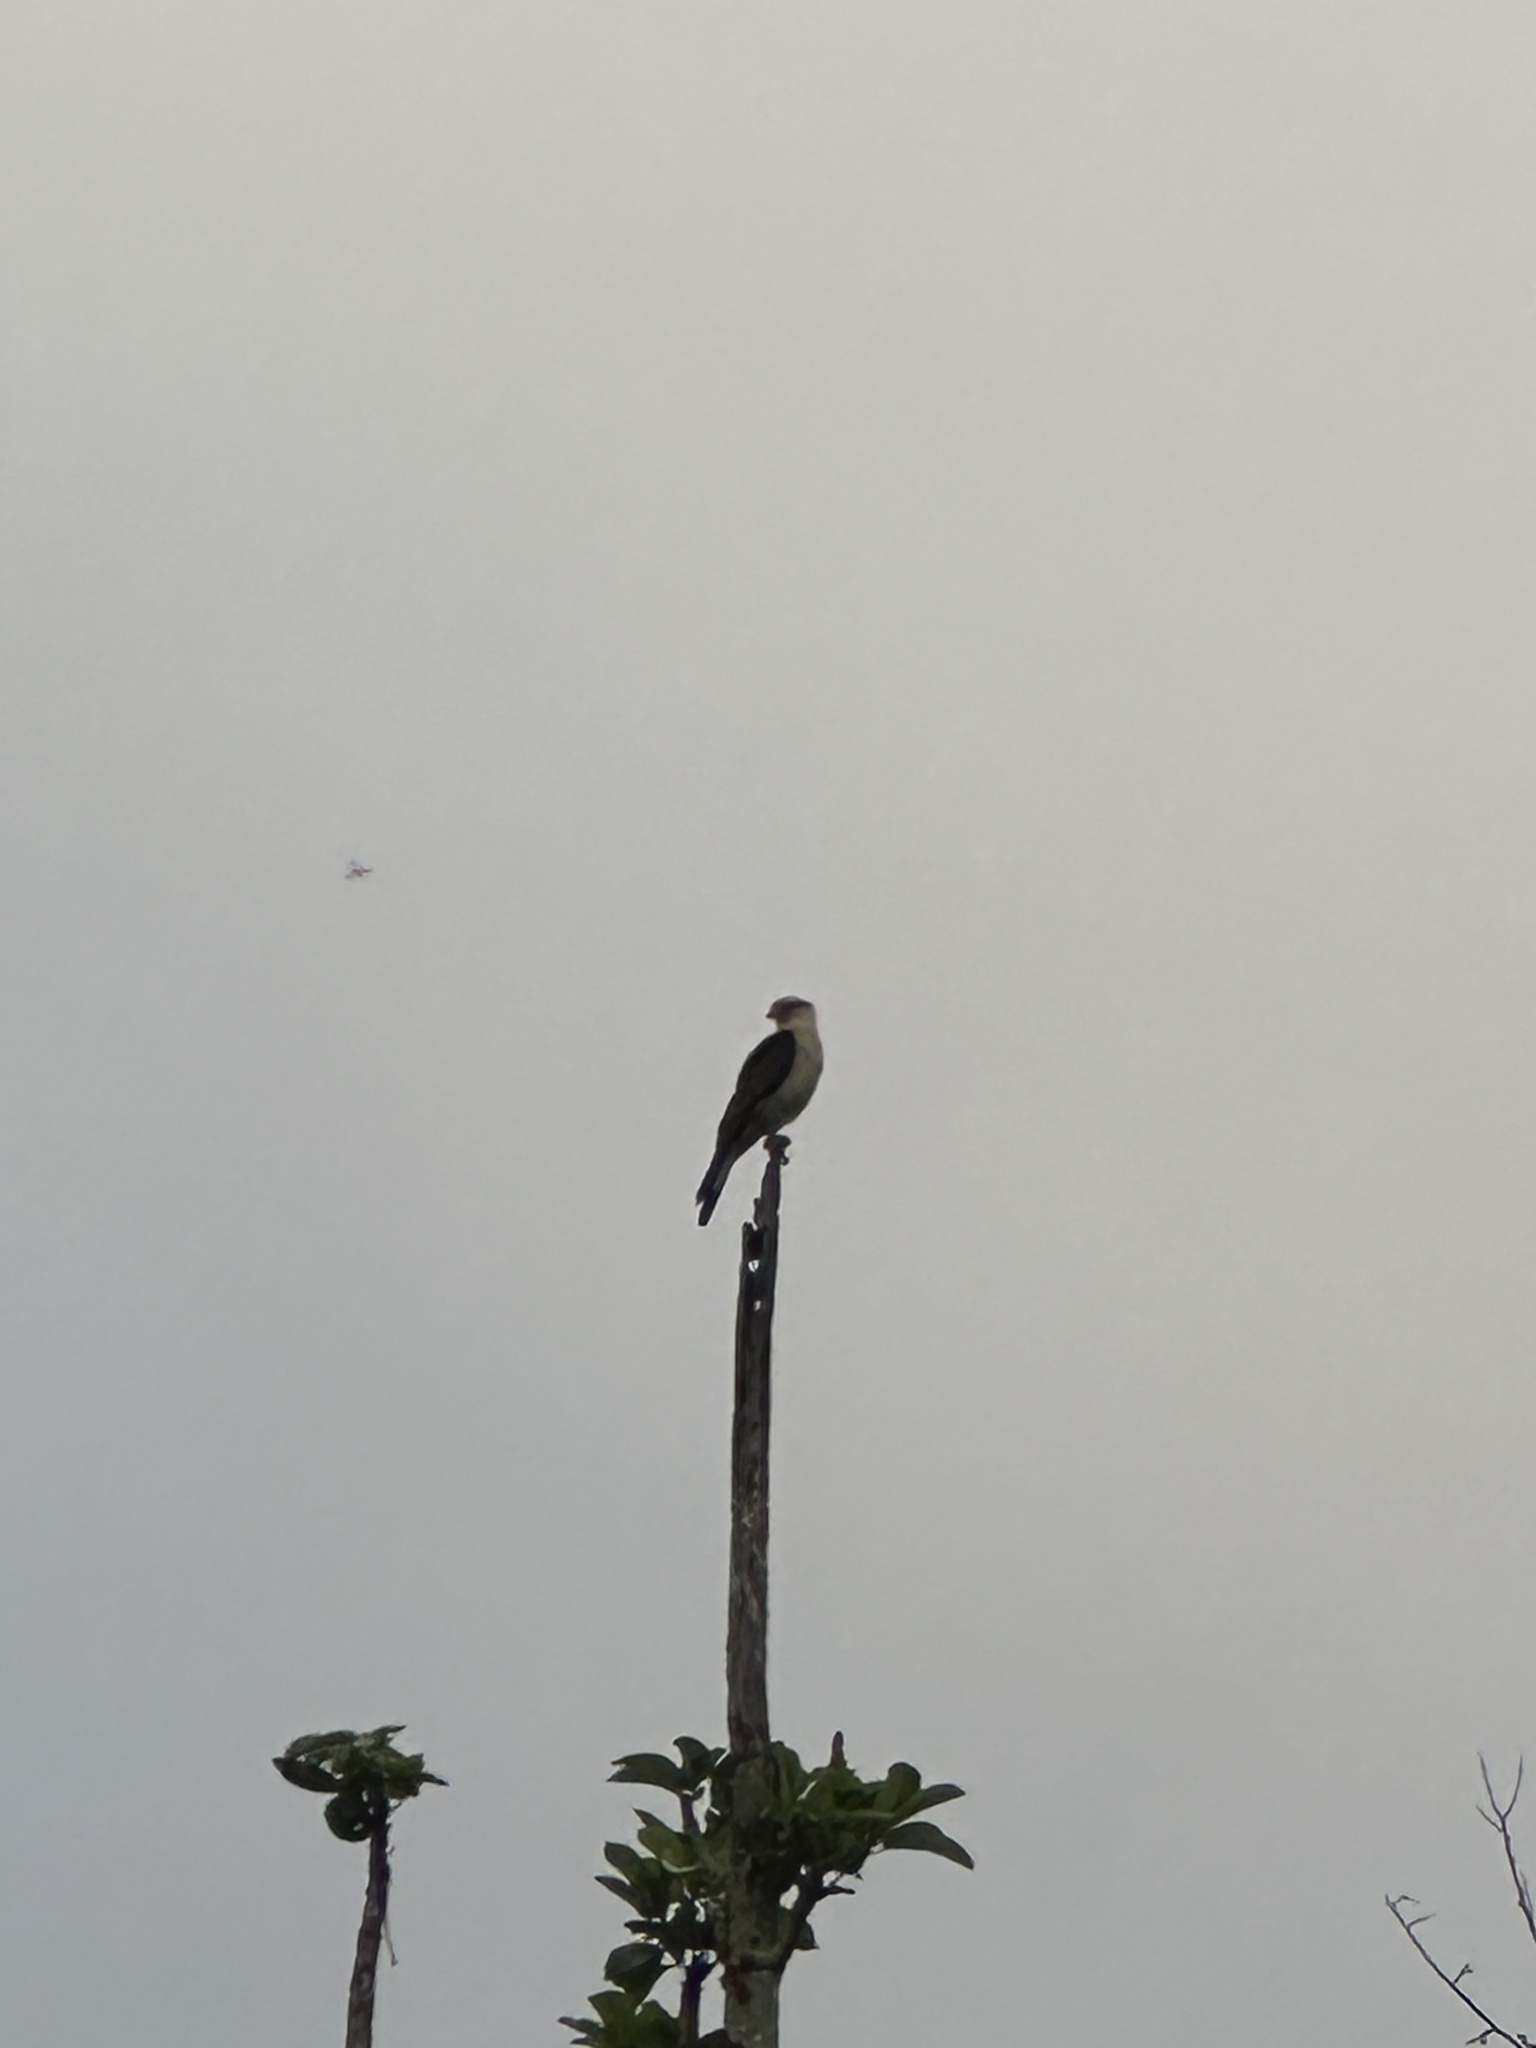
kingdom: Animalia
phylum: Chordata
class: Aves
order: Falconiformes
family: Falconidae
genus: Daptrius
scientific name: Daptrius
